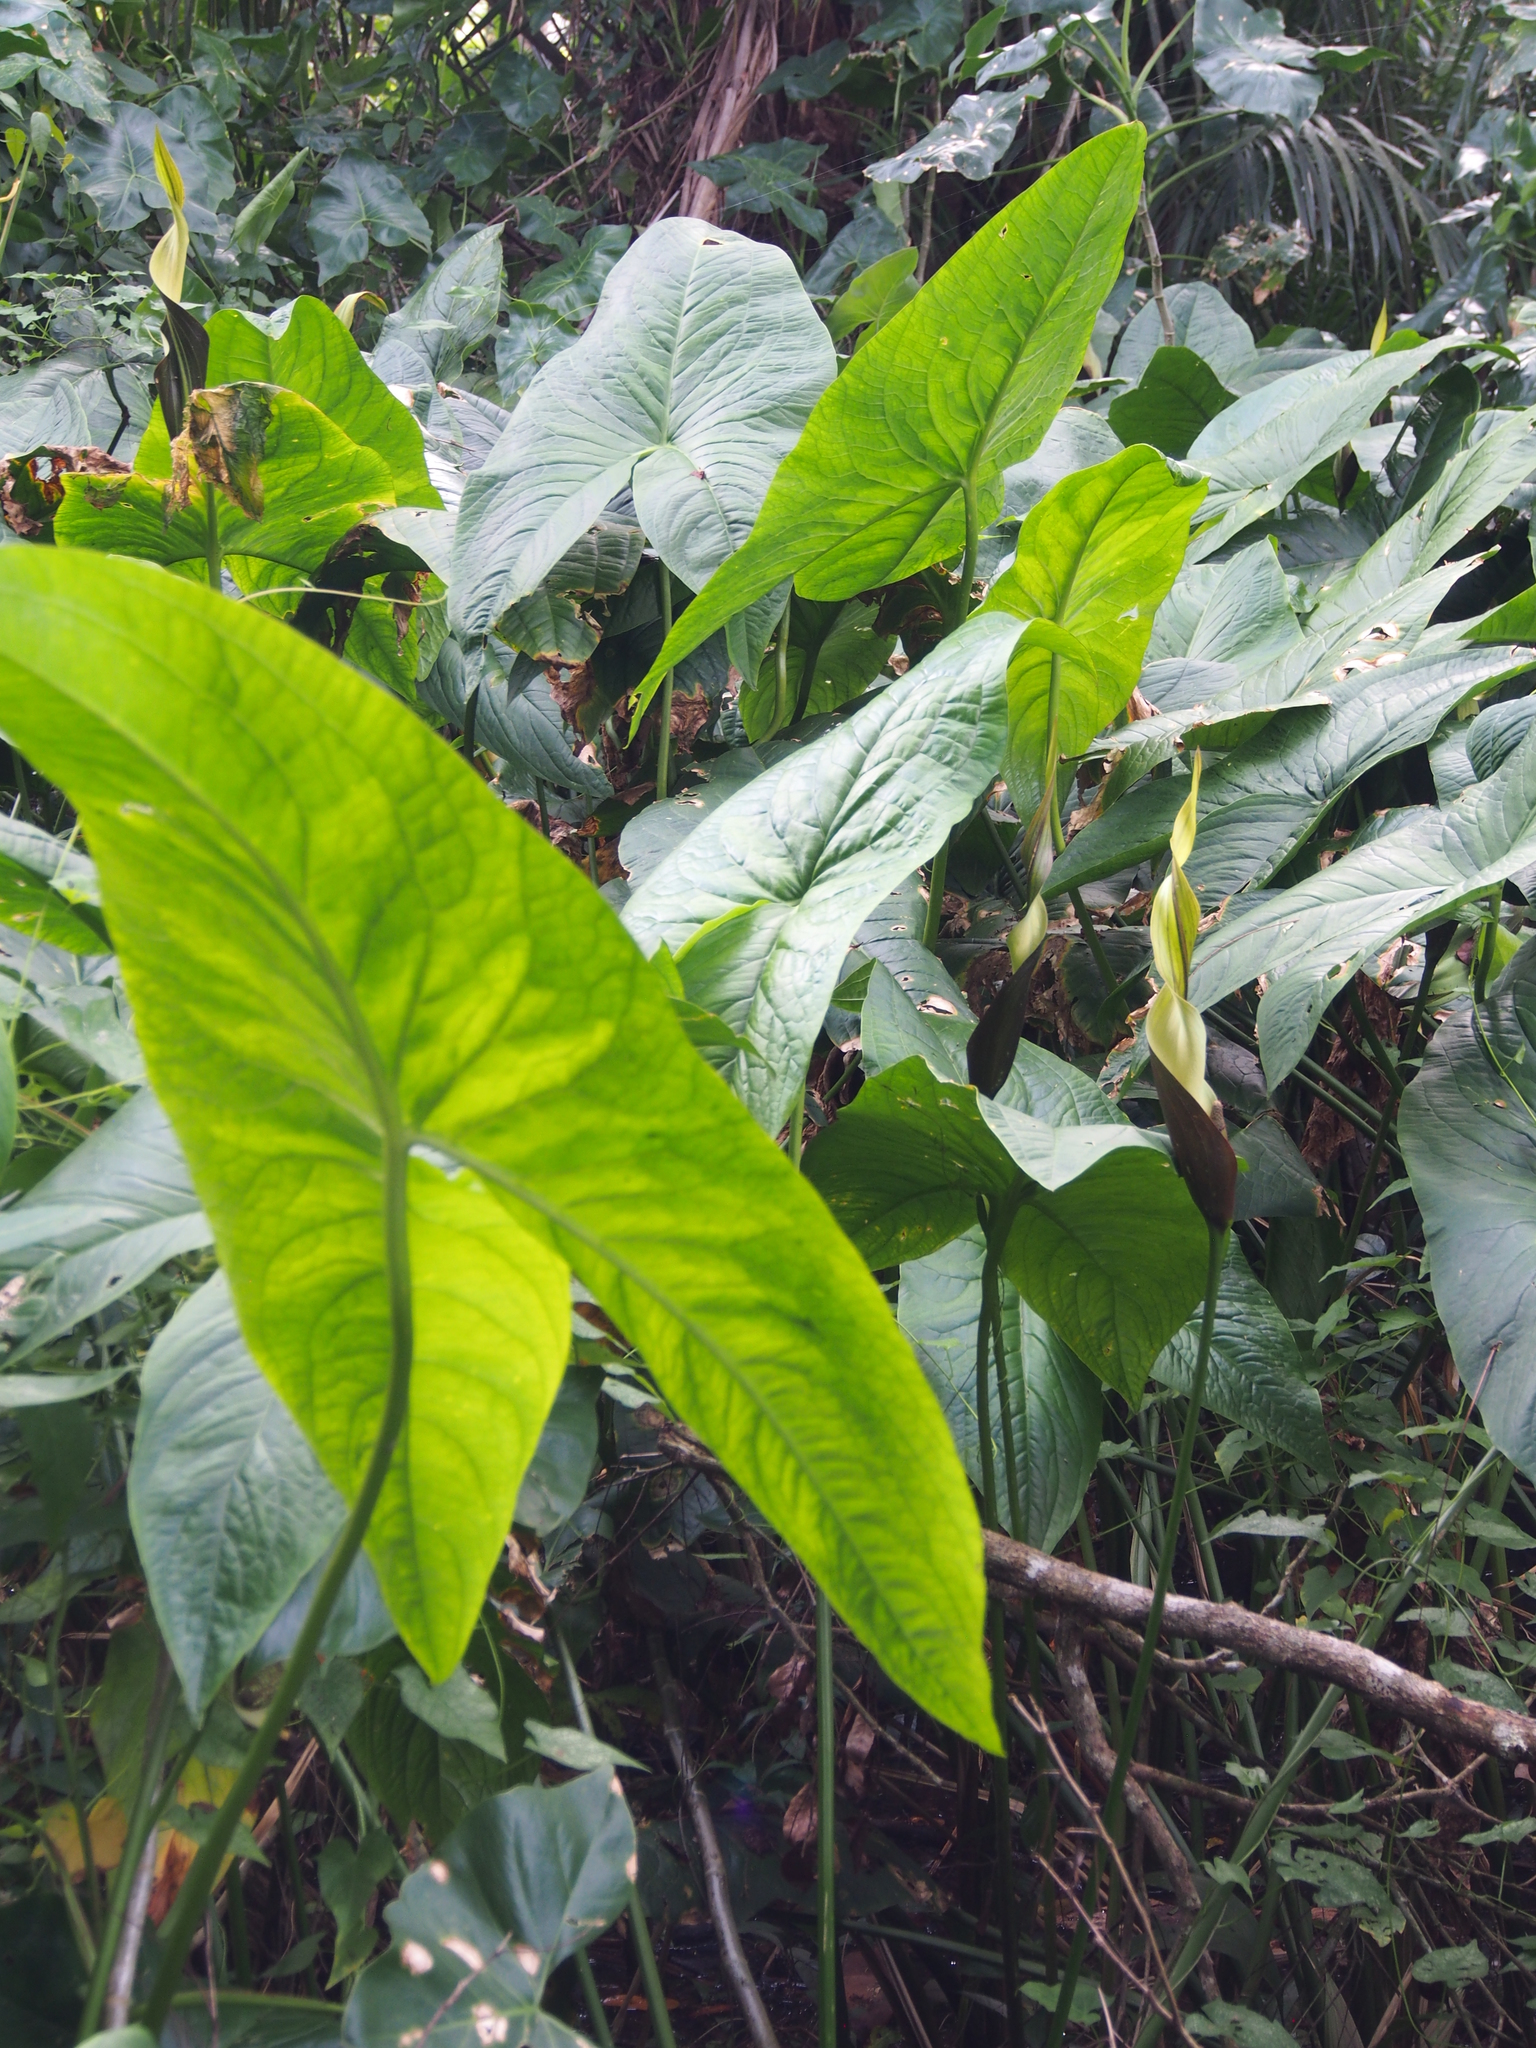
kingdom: Plantae
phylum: Tracheophyta
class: Liliopsida
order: Alismatales
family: Araceae
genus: Urospatha
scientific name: Urospatha grandis
